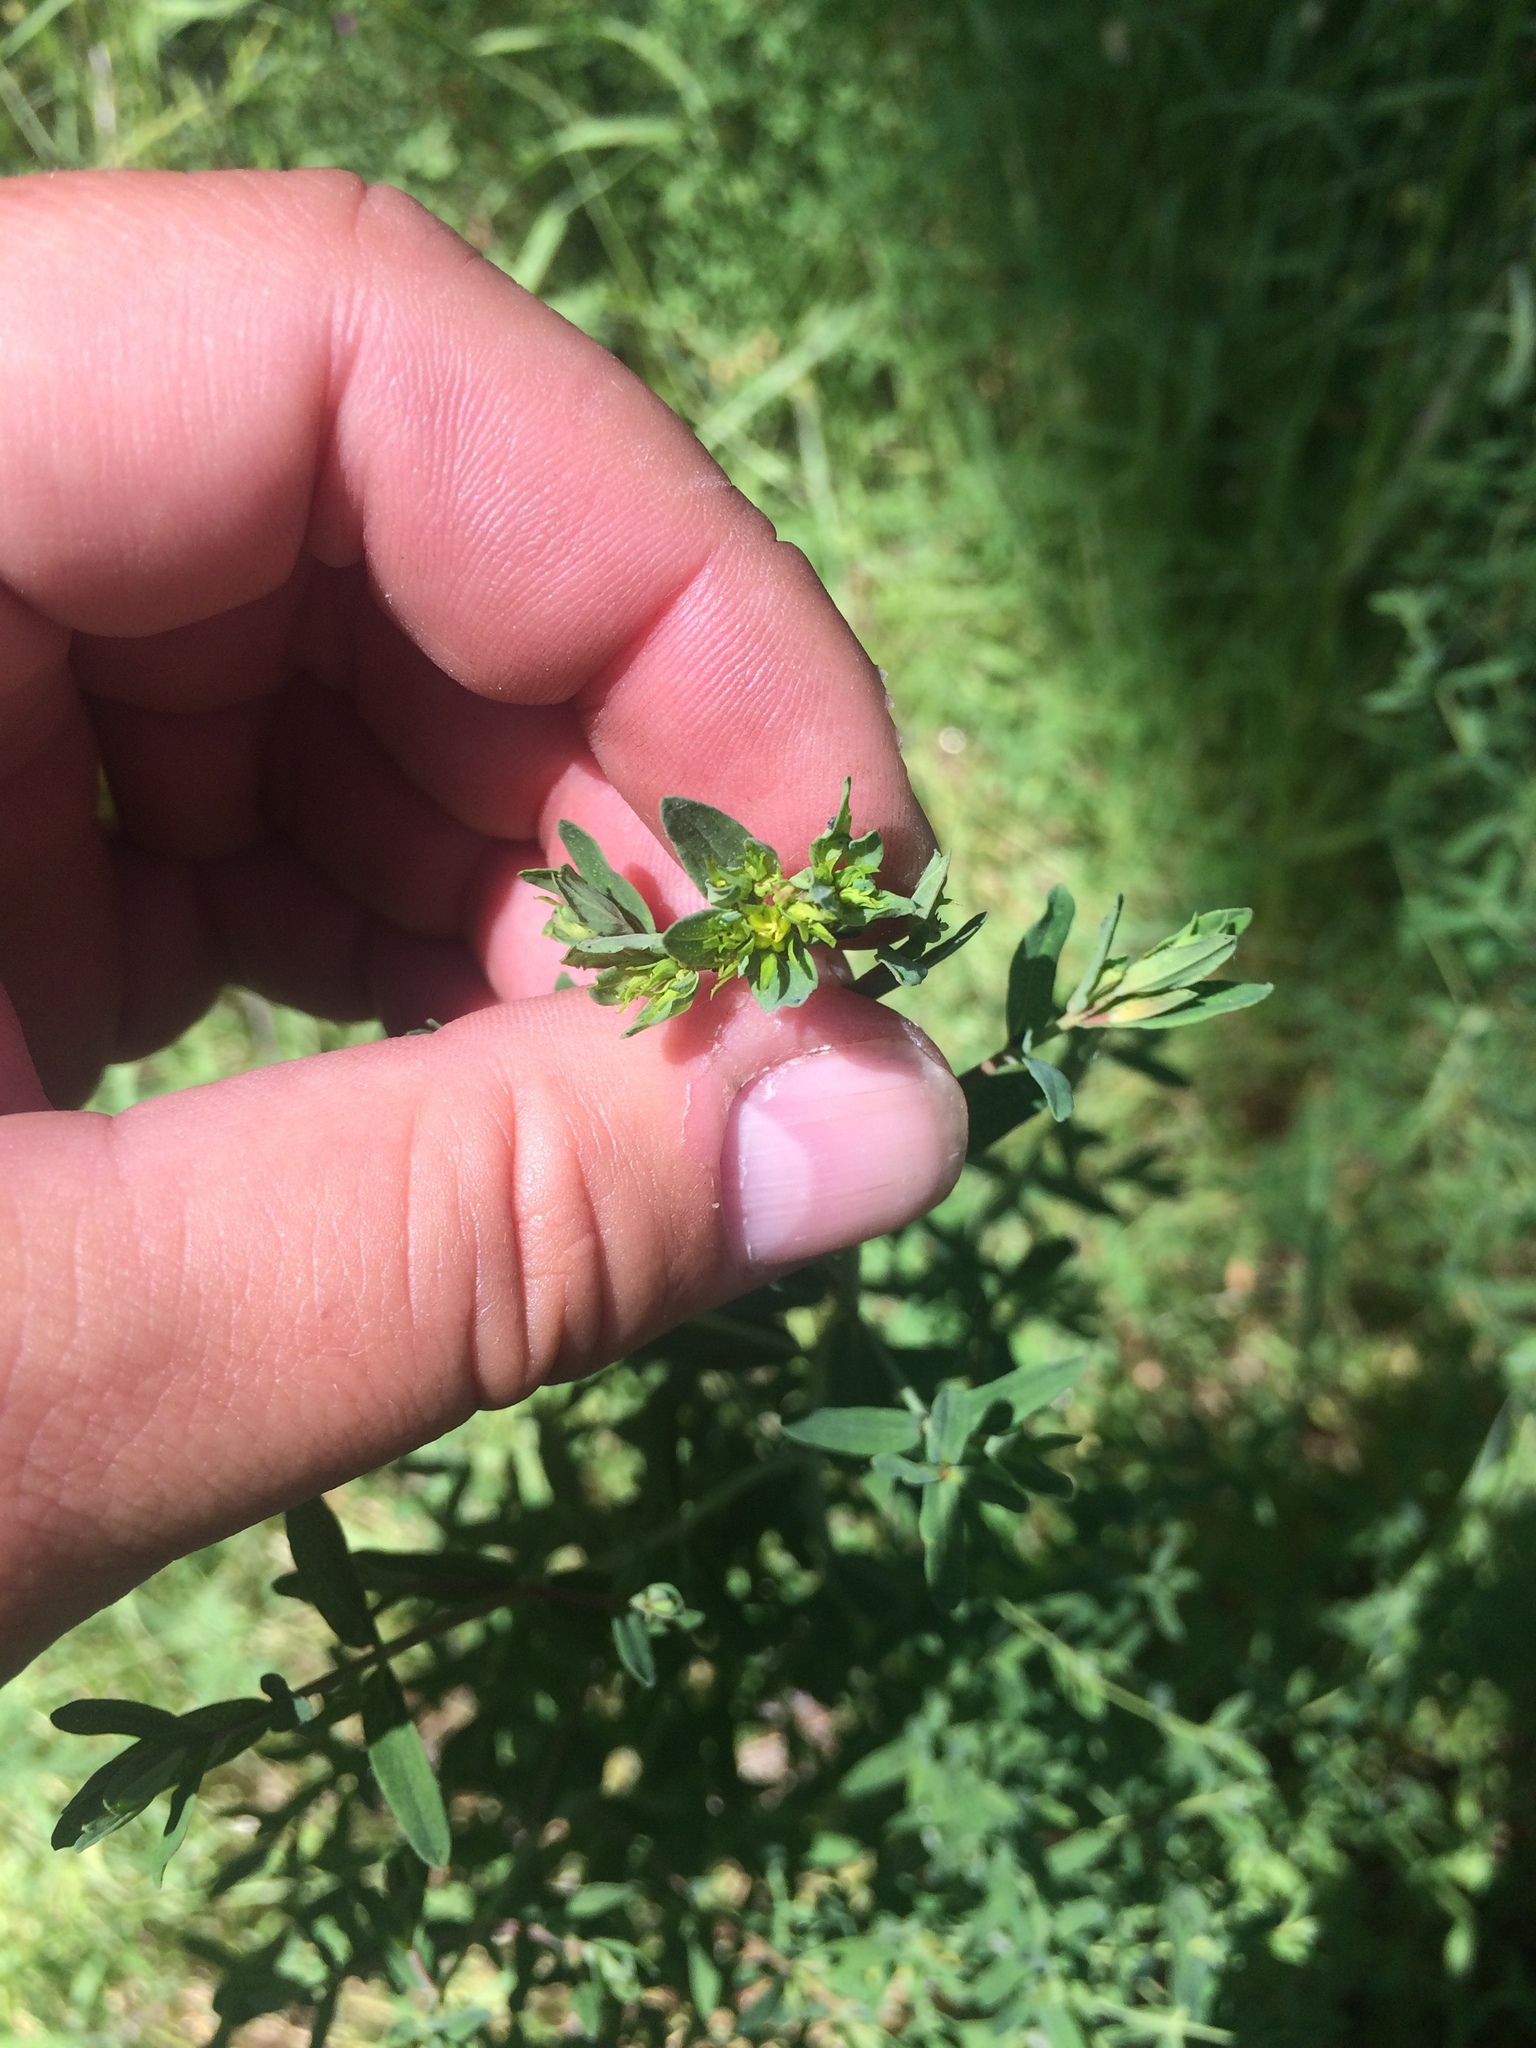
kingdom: Plantae
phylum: Tracheophyta
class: Magnoliopsida
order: Malpighiales
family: Hypericaceae
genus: Hypericum
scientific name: Hypericum perforatum
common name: Common st. johnswort
